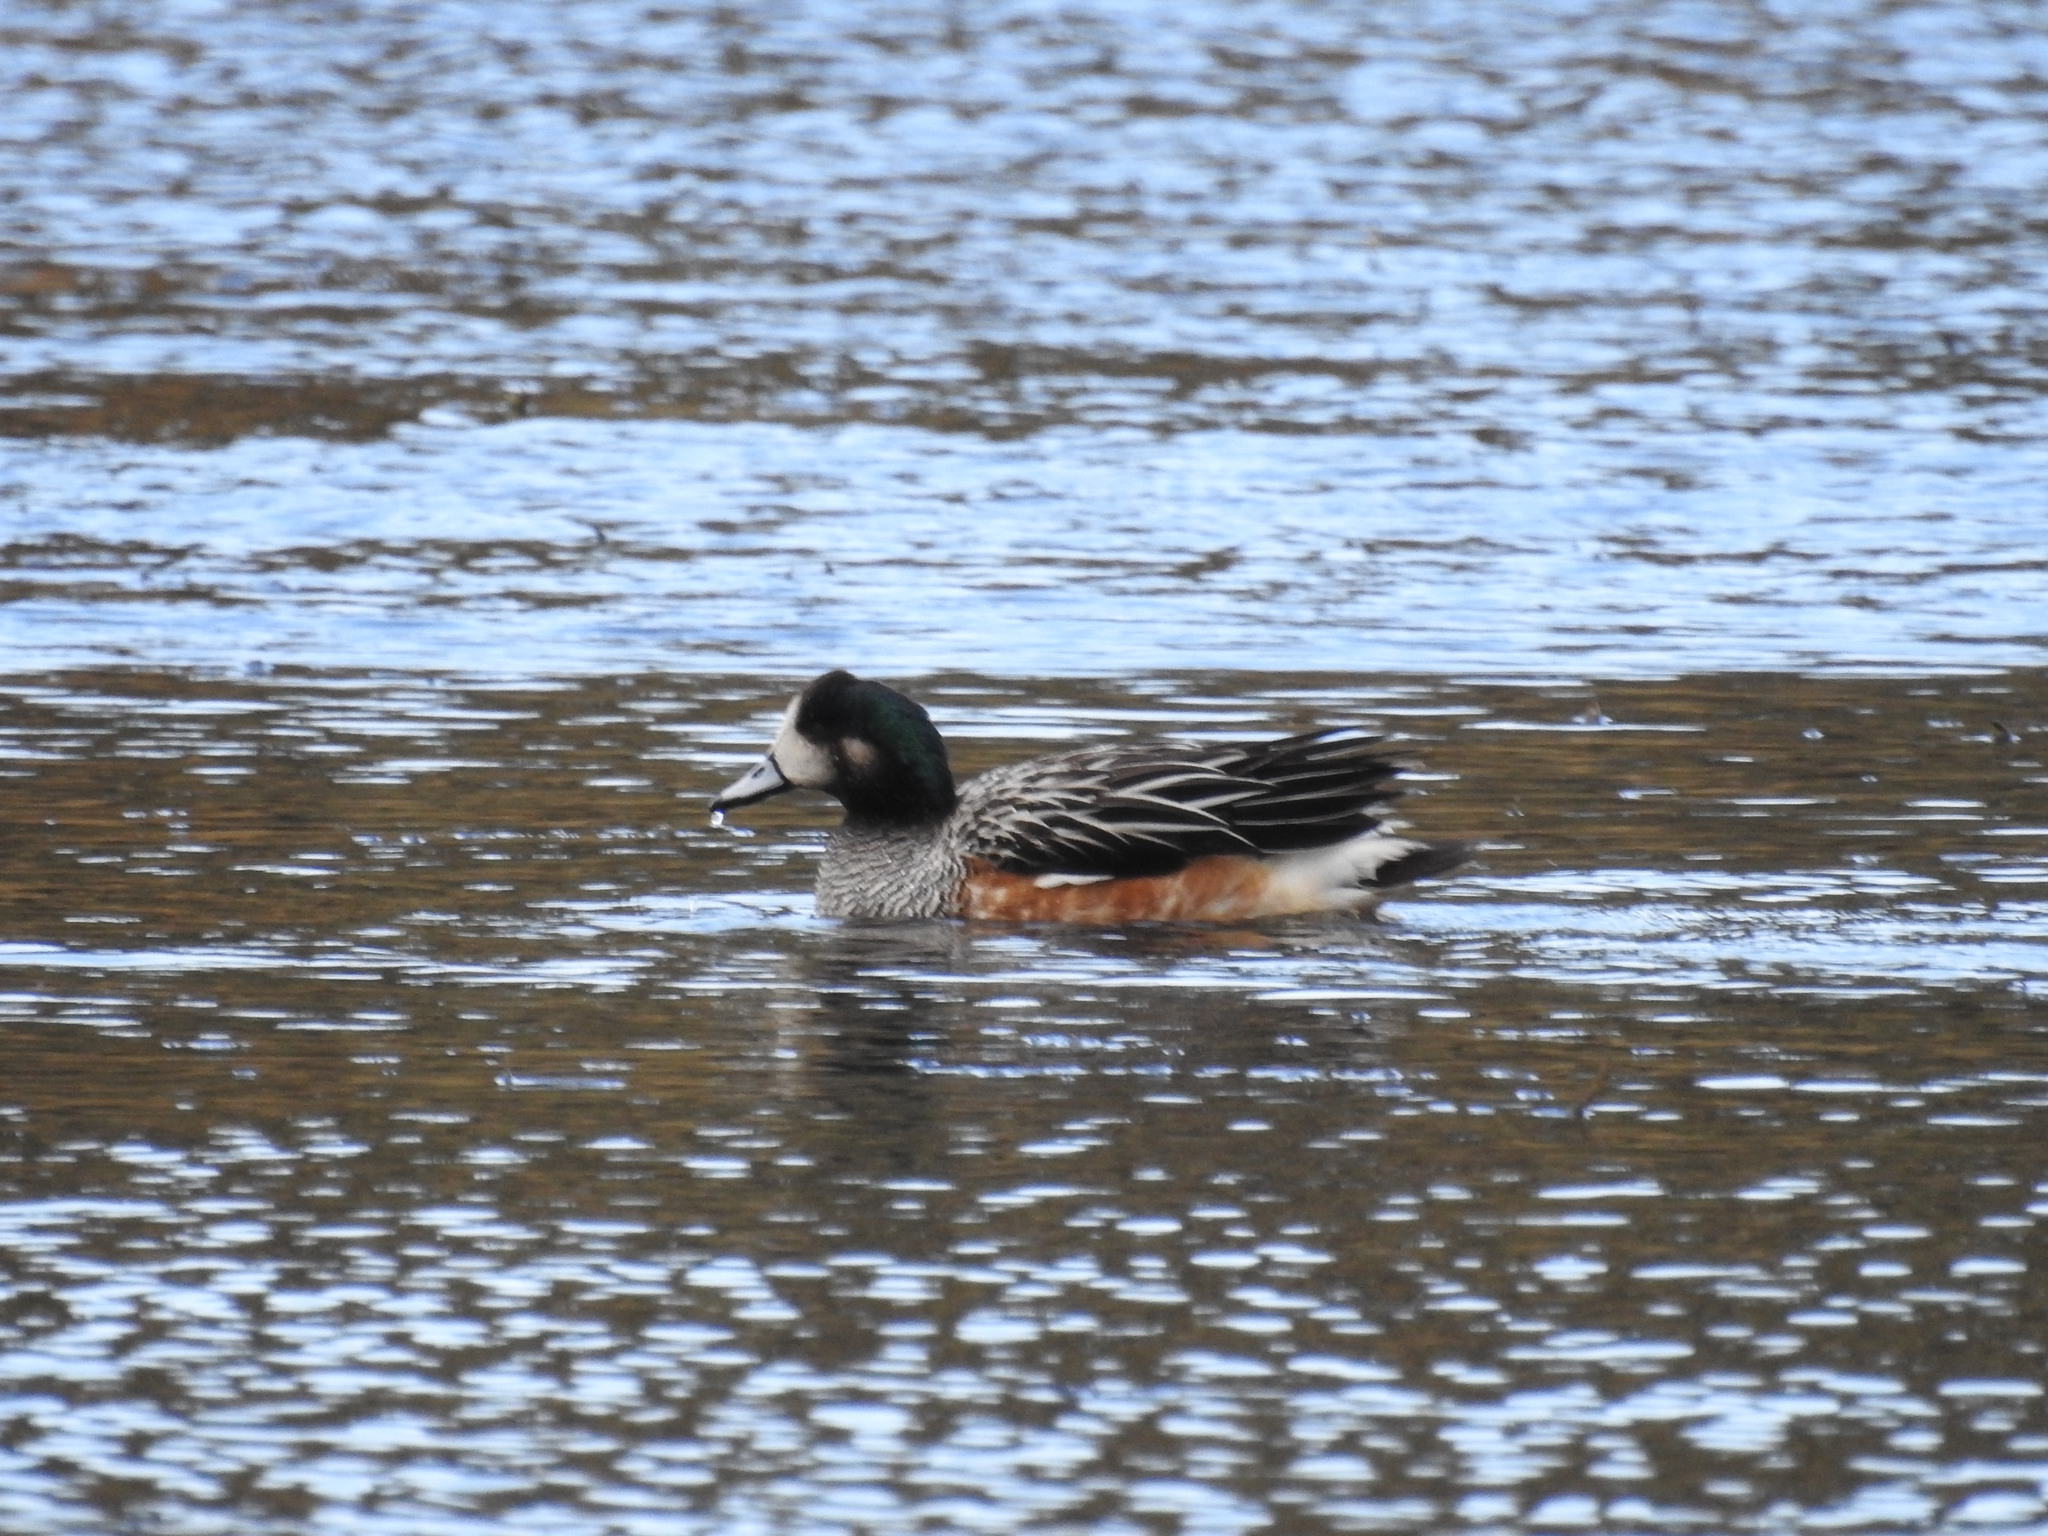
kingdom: Animalia
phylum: Chordata
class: Aves
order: Anseriformes
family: Anatidae
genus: Mareca
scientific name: Mareca sibilatrix
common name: Chiloe wigeon
